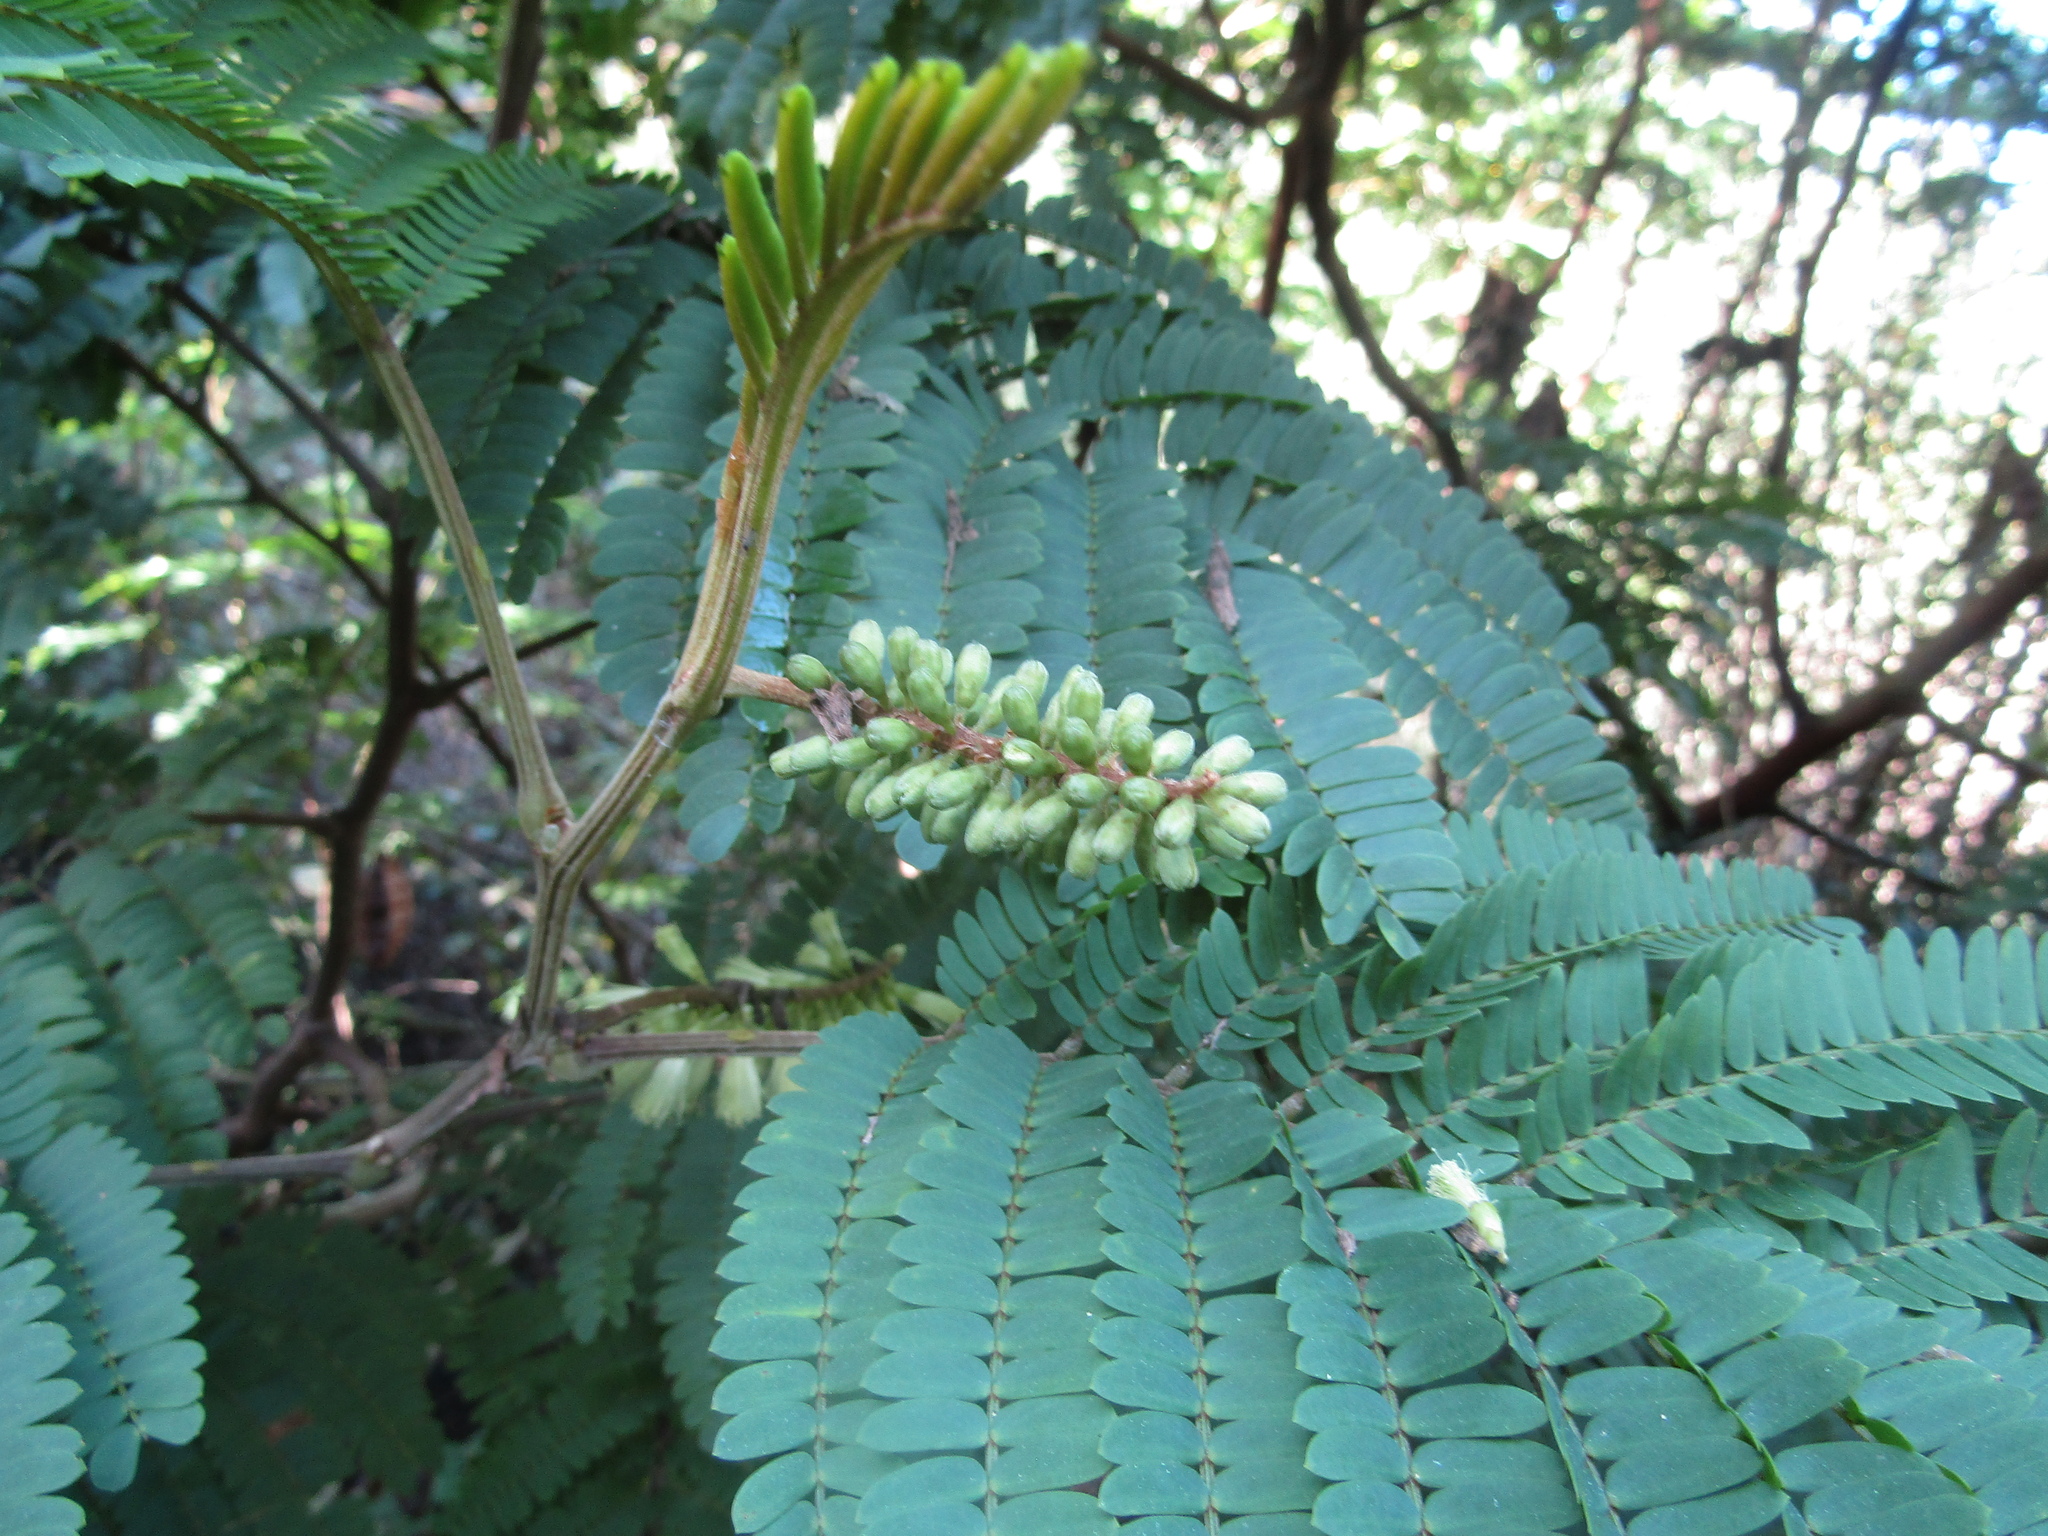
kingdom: Plantae
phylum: Tracheophyta
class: Magnoliopsida
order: Fabales
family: Fabaceae
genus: Paraserianthes
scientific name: Paraserianthes lophantha
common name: Plume albizia
